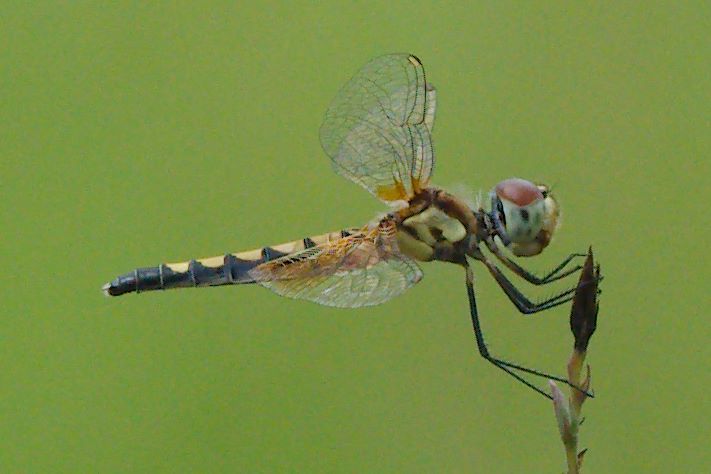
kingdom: Animalia
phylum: Arthropoda
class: Insecta
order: Odonata
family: Libellulidae
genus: Celithemis
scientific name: Celithemis amanda
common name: Amanda's pennant
